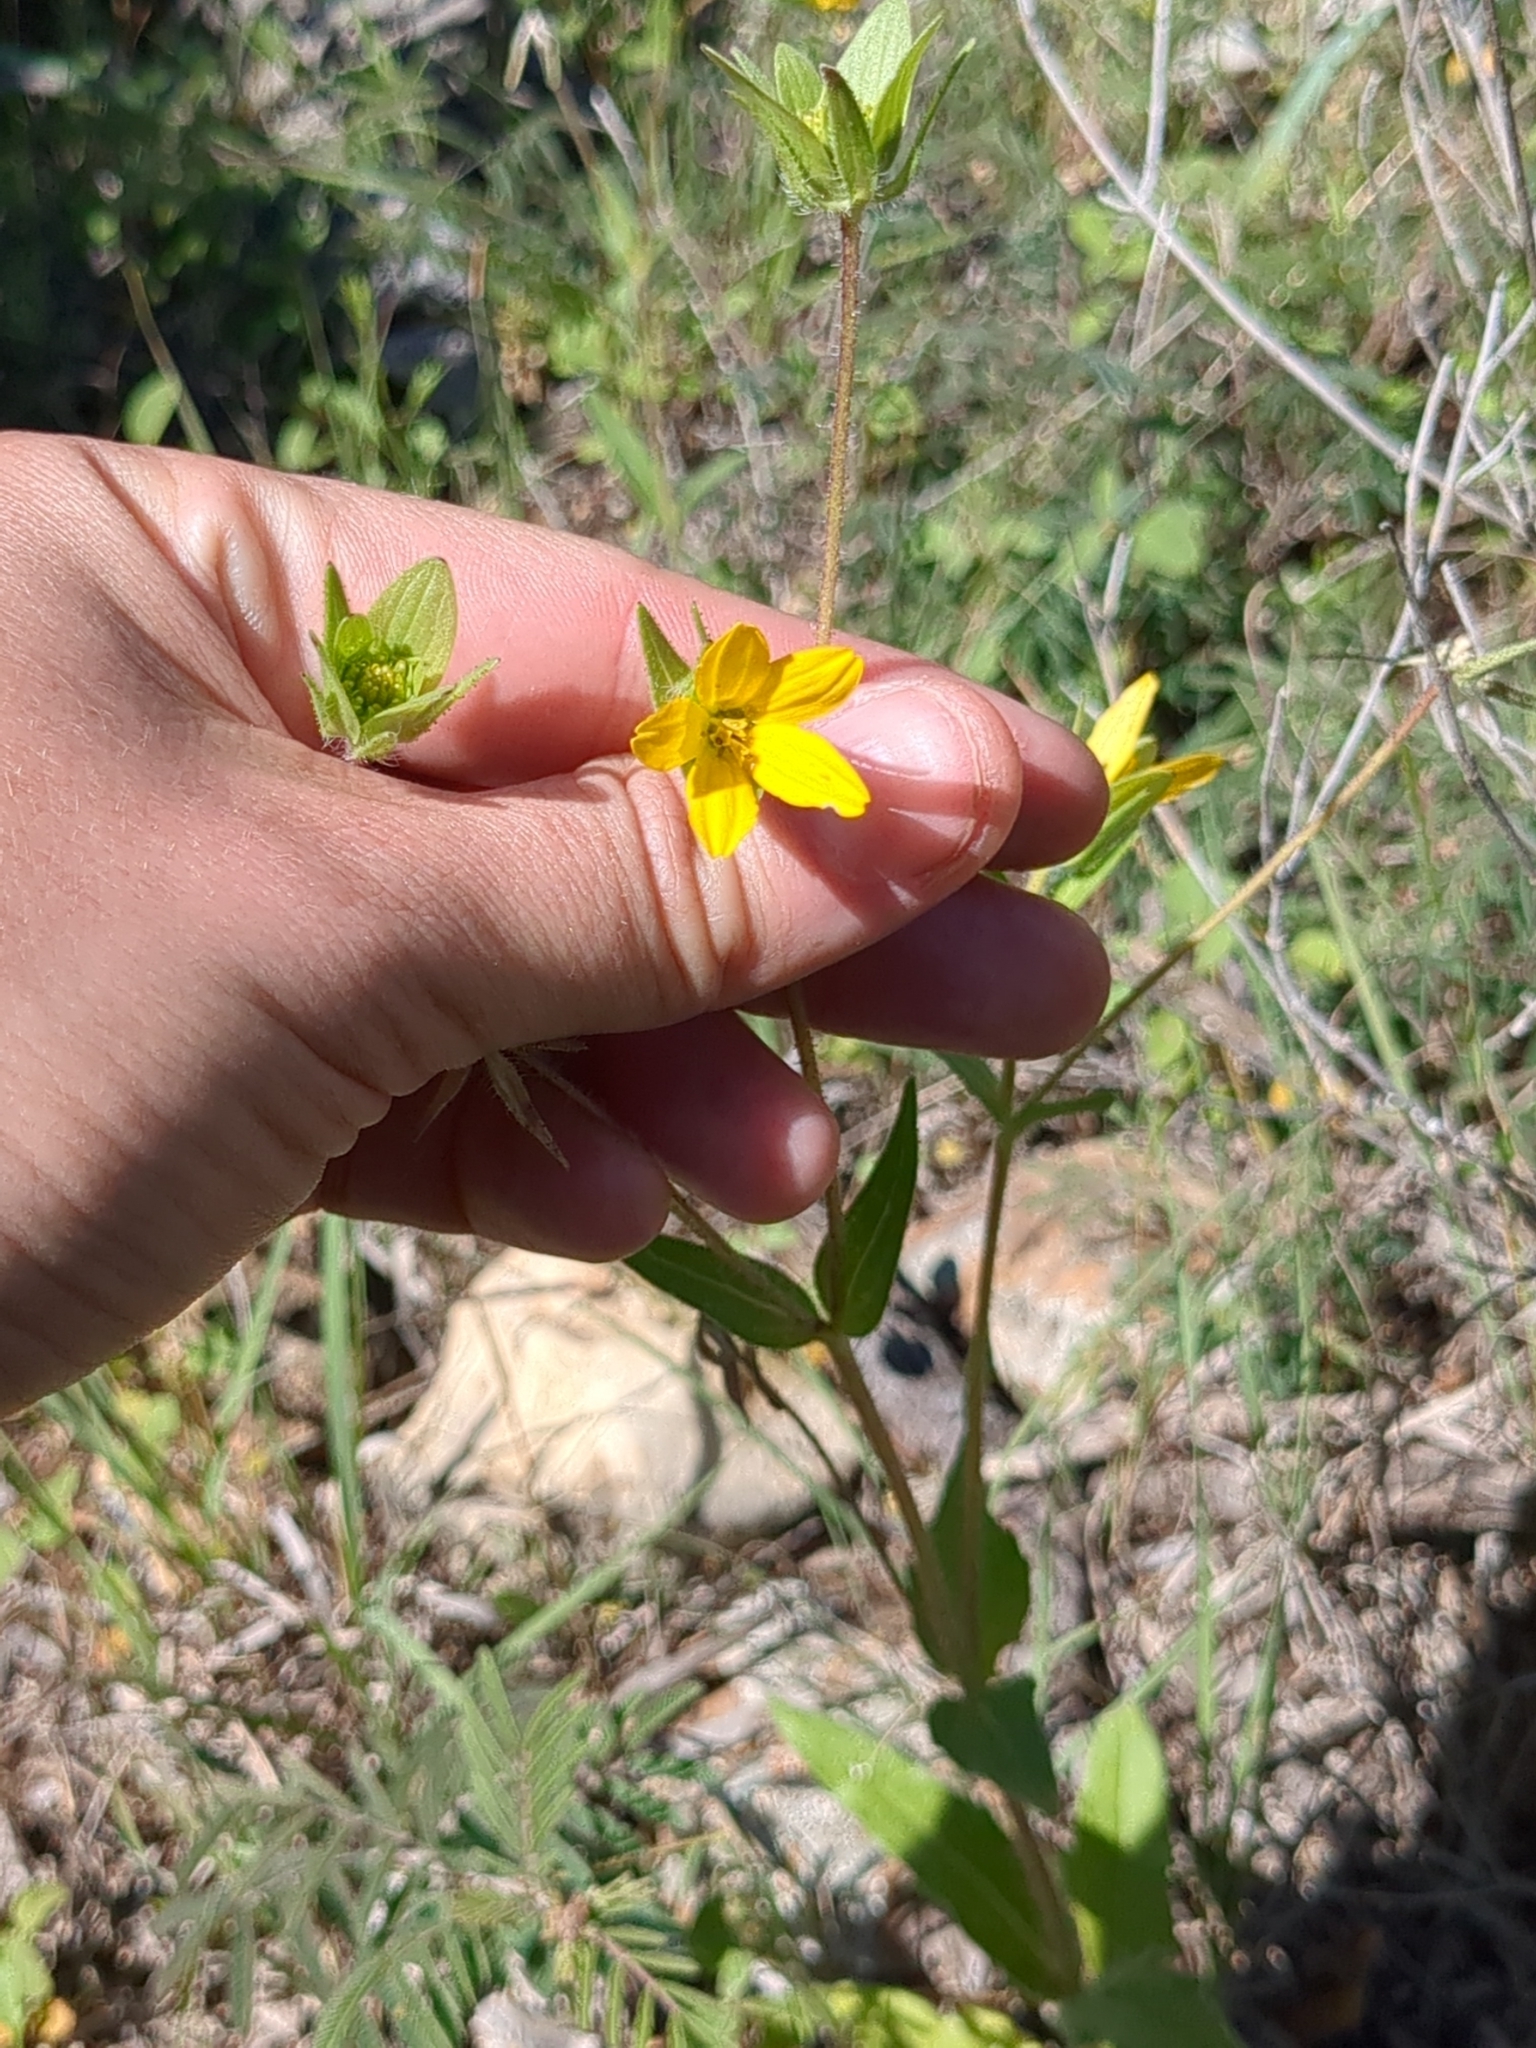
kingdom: Plantae
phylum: Tracheophyta
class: Magnoliopsida
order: Asterales
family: Asteraceae
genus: Lindheimera
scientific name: Lindheimera texana
